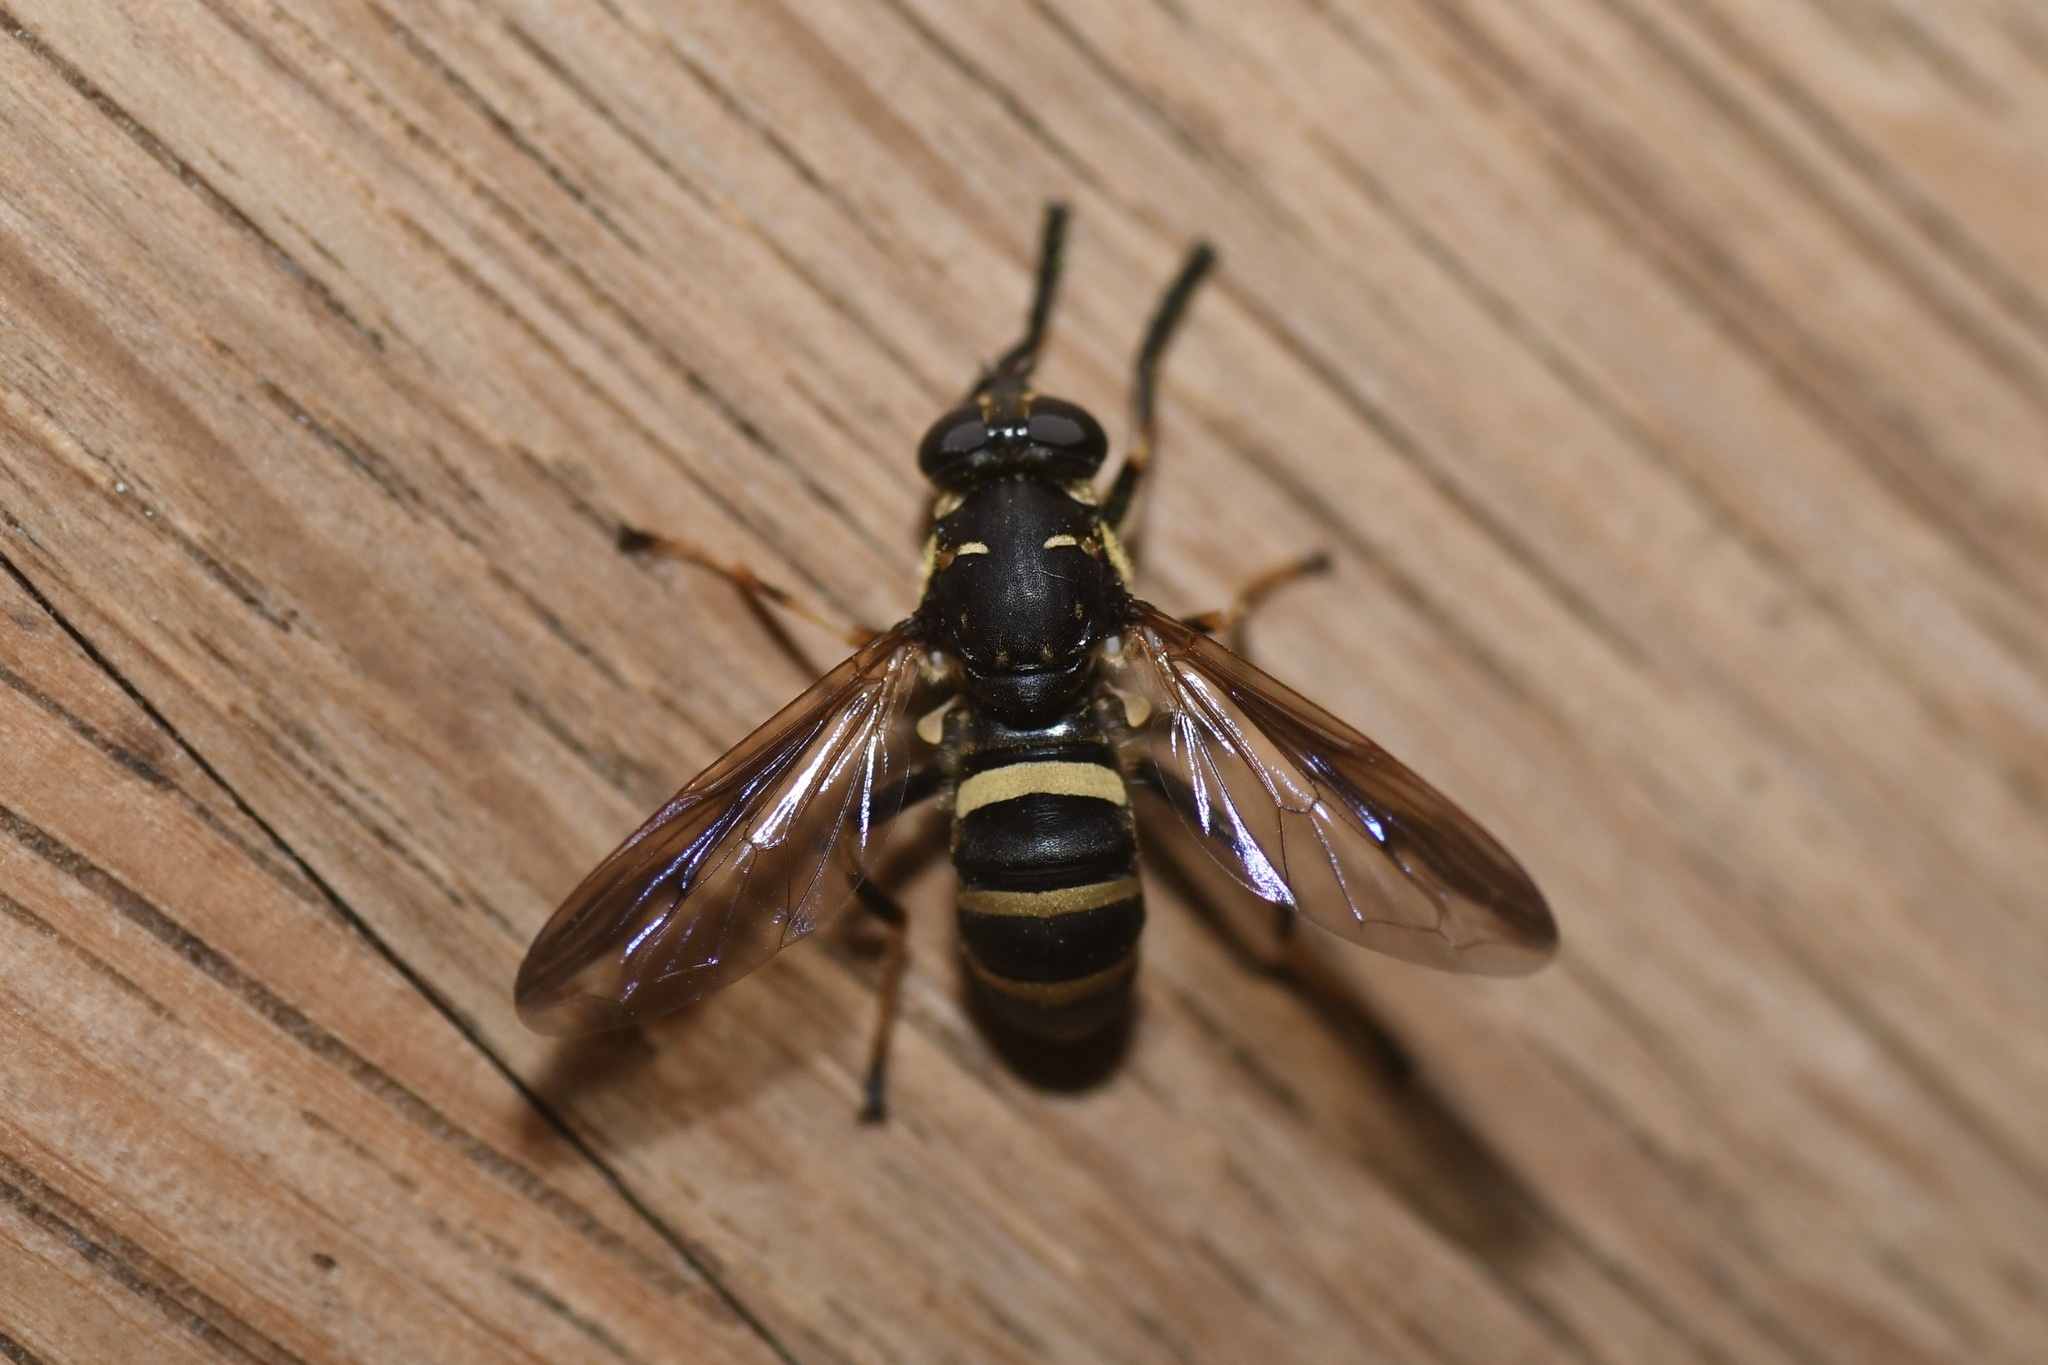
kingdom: Animalia
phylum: Arthropoda
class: Insecta
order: Diptera
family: Syrphidae
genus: Temnostoma
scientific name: Temnostoma barberi
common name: Bare-bellied falsehorn
